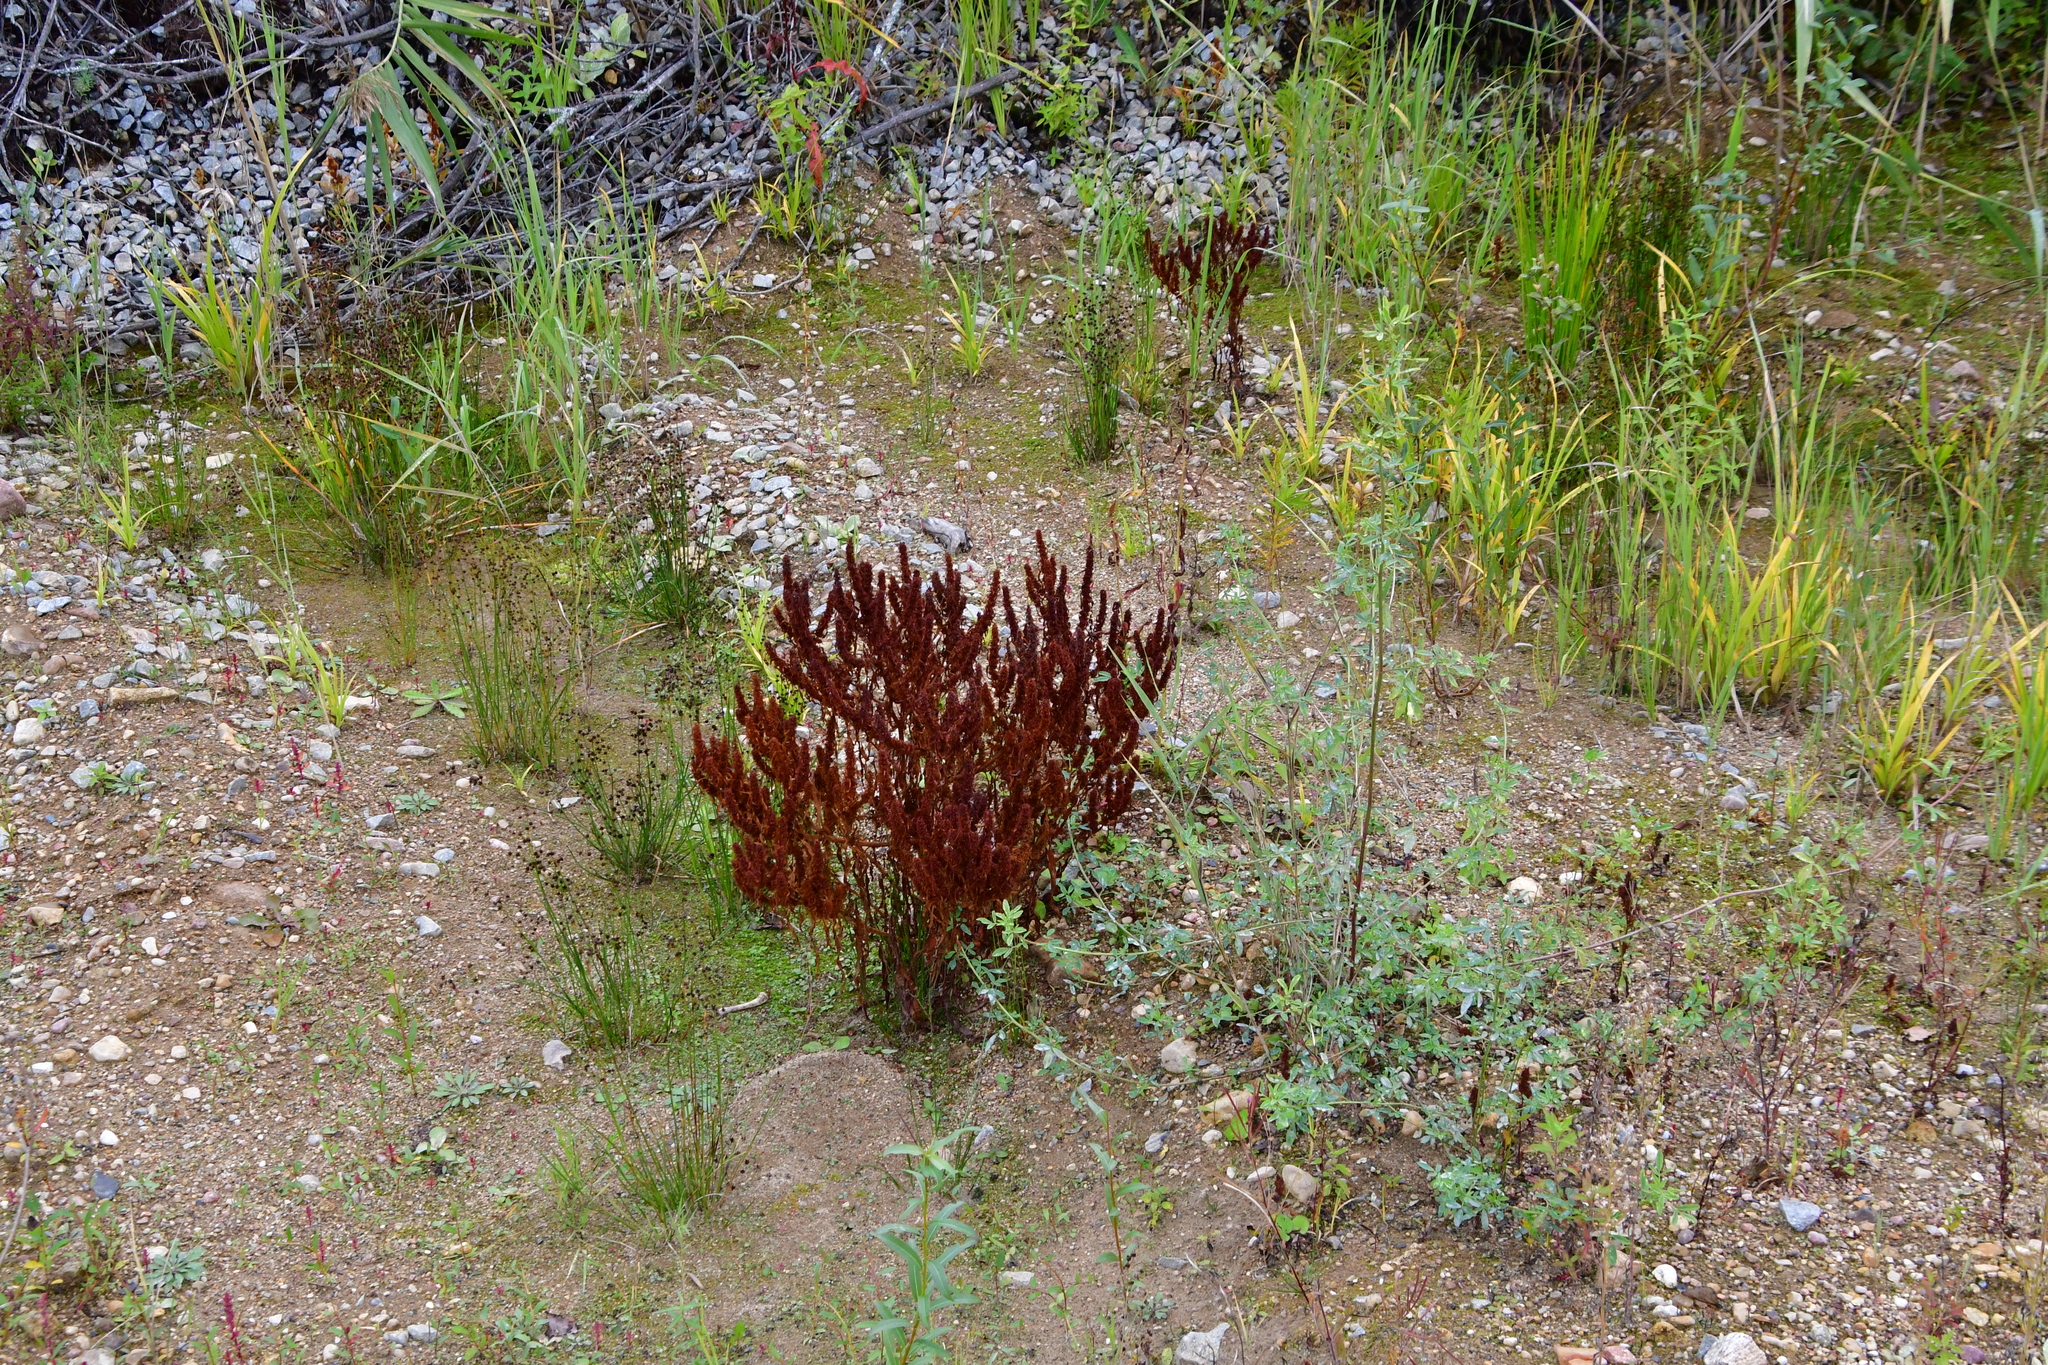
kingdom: Plantae
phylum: Tracheophyta
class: Magnoliopsida
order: Caryophyllales
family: Polygonaceae
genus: Rumex
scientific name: Rumex maritimus
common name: Golden dock
